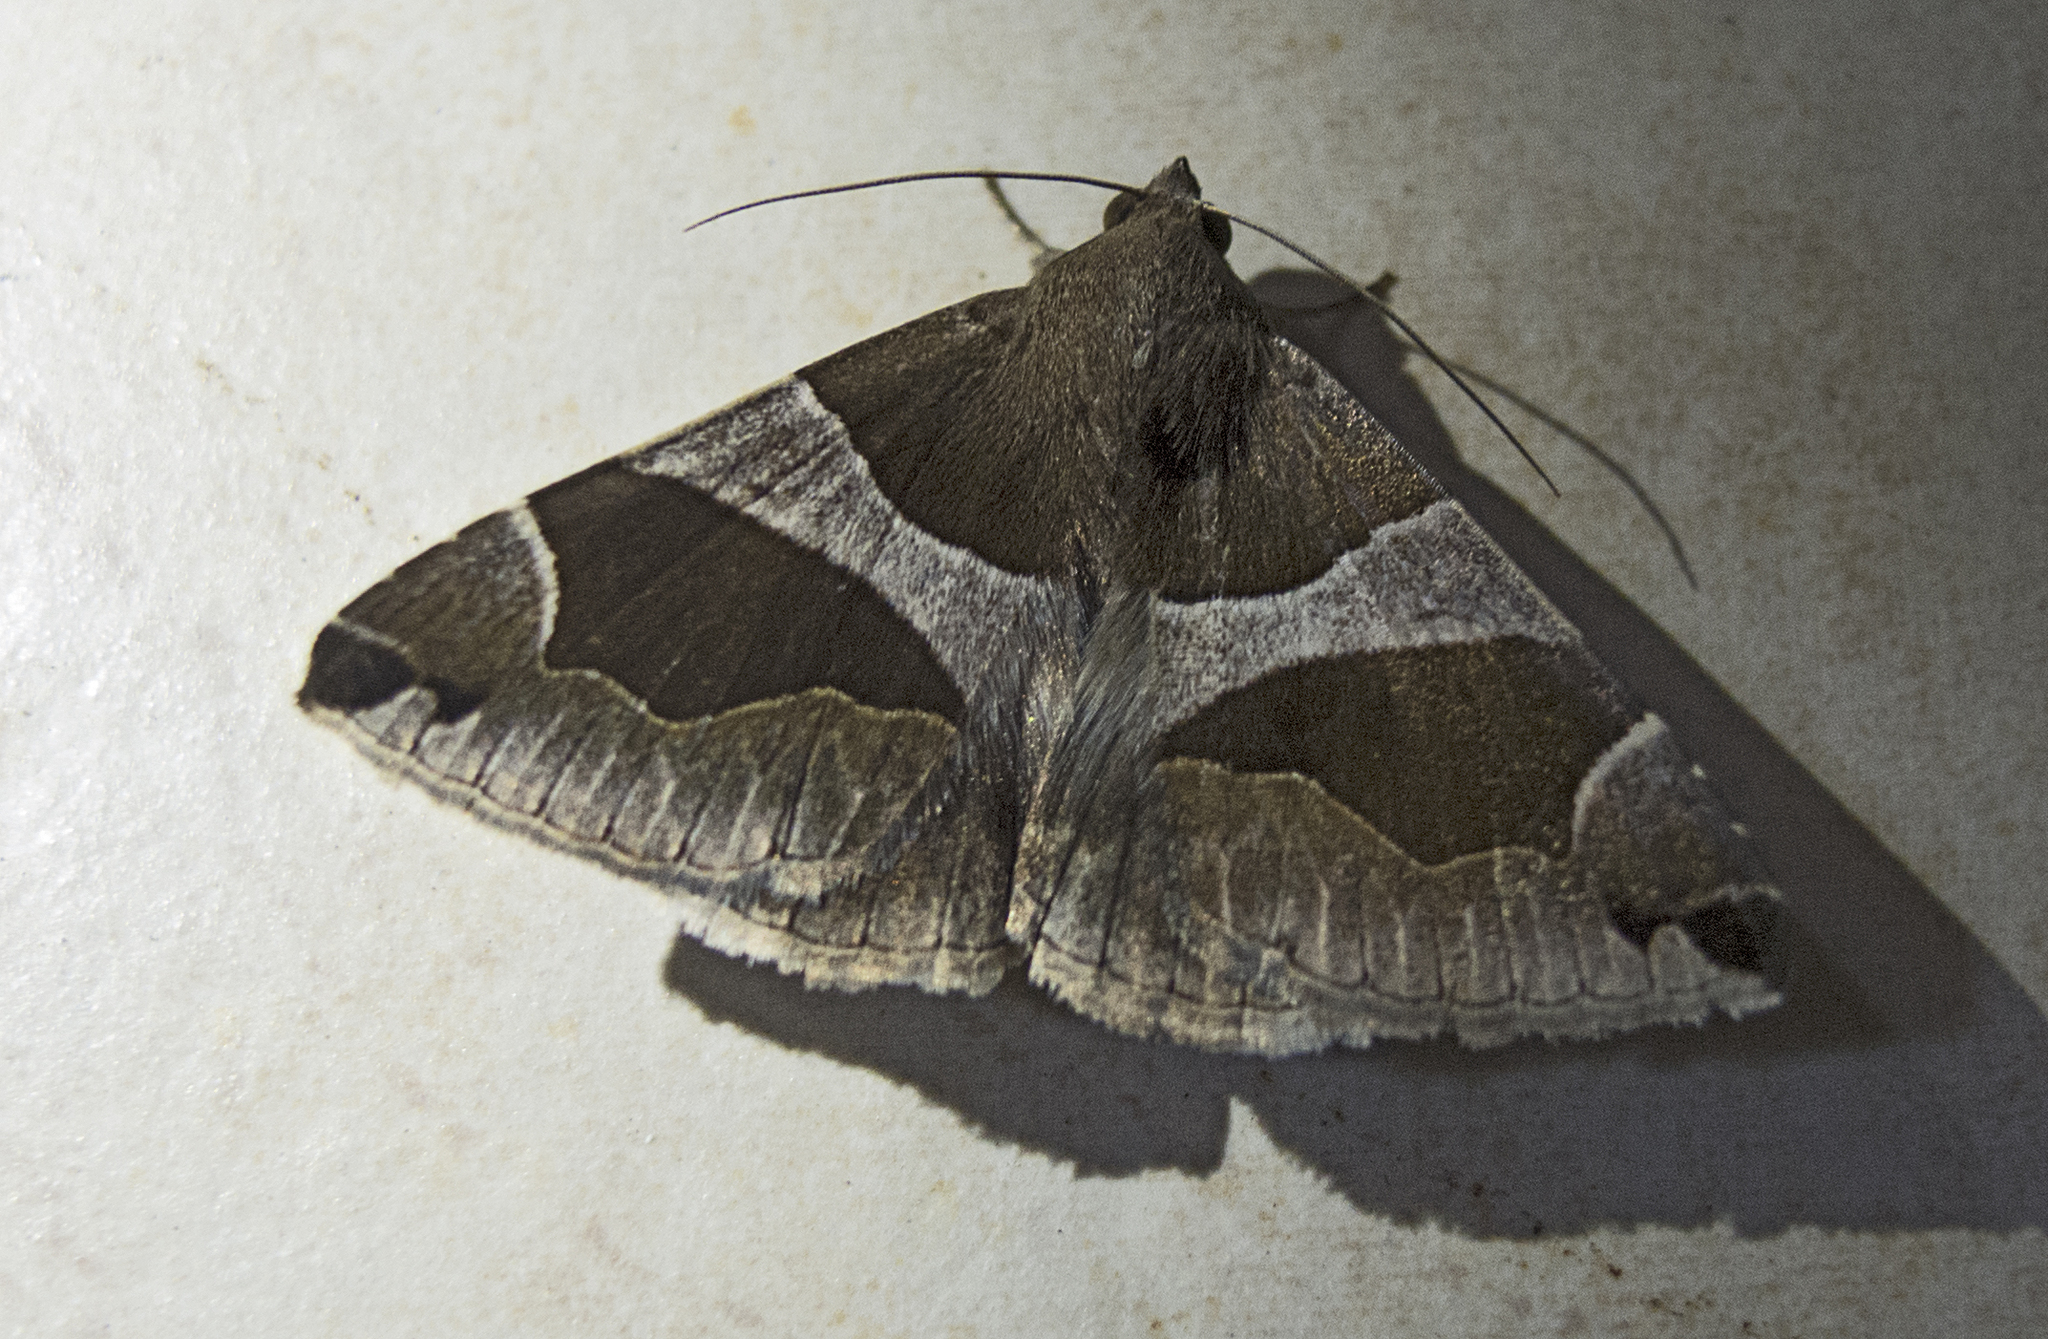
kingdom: Animalia
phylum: Arthropoda
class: Insecta
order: Lepidoptera
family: Erebidae
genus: Dysgonia
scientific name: Dysgonia algira
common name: Passenger
